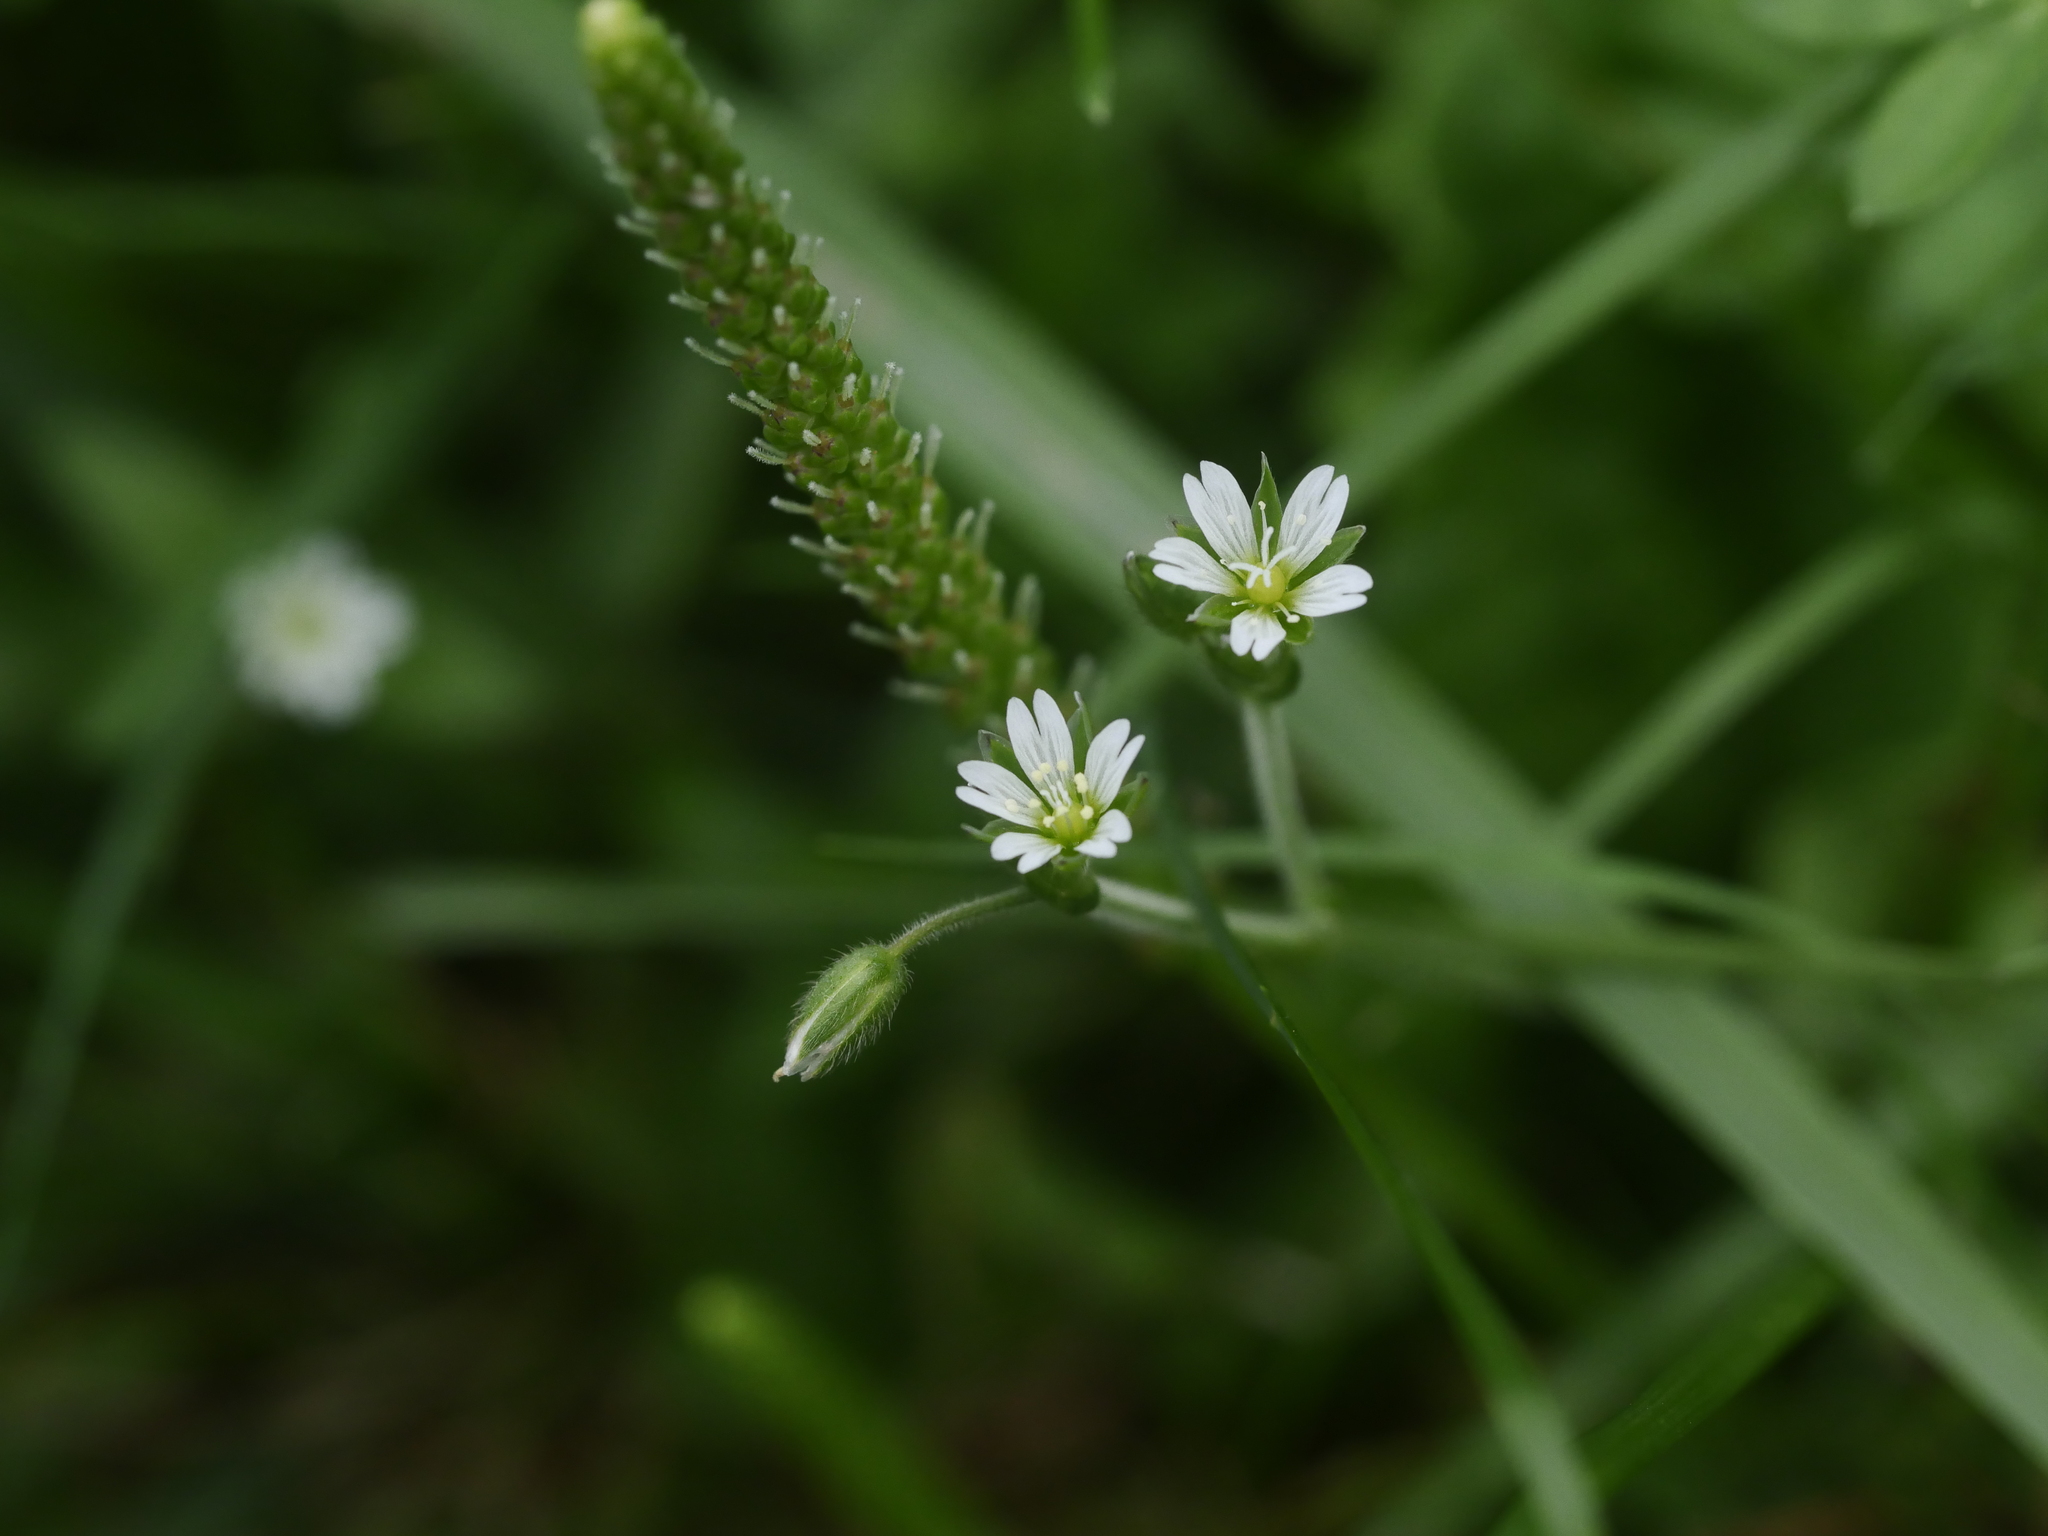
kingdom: Plantae
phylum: Tracheophyta
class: Magnoliopsida
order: Caryophyllales
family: Caryophyllaceae
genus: Cerastium
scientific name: Cerastium fontanum
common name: Common mouse-ear
